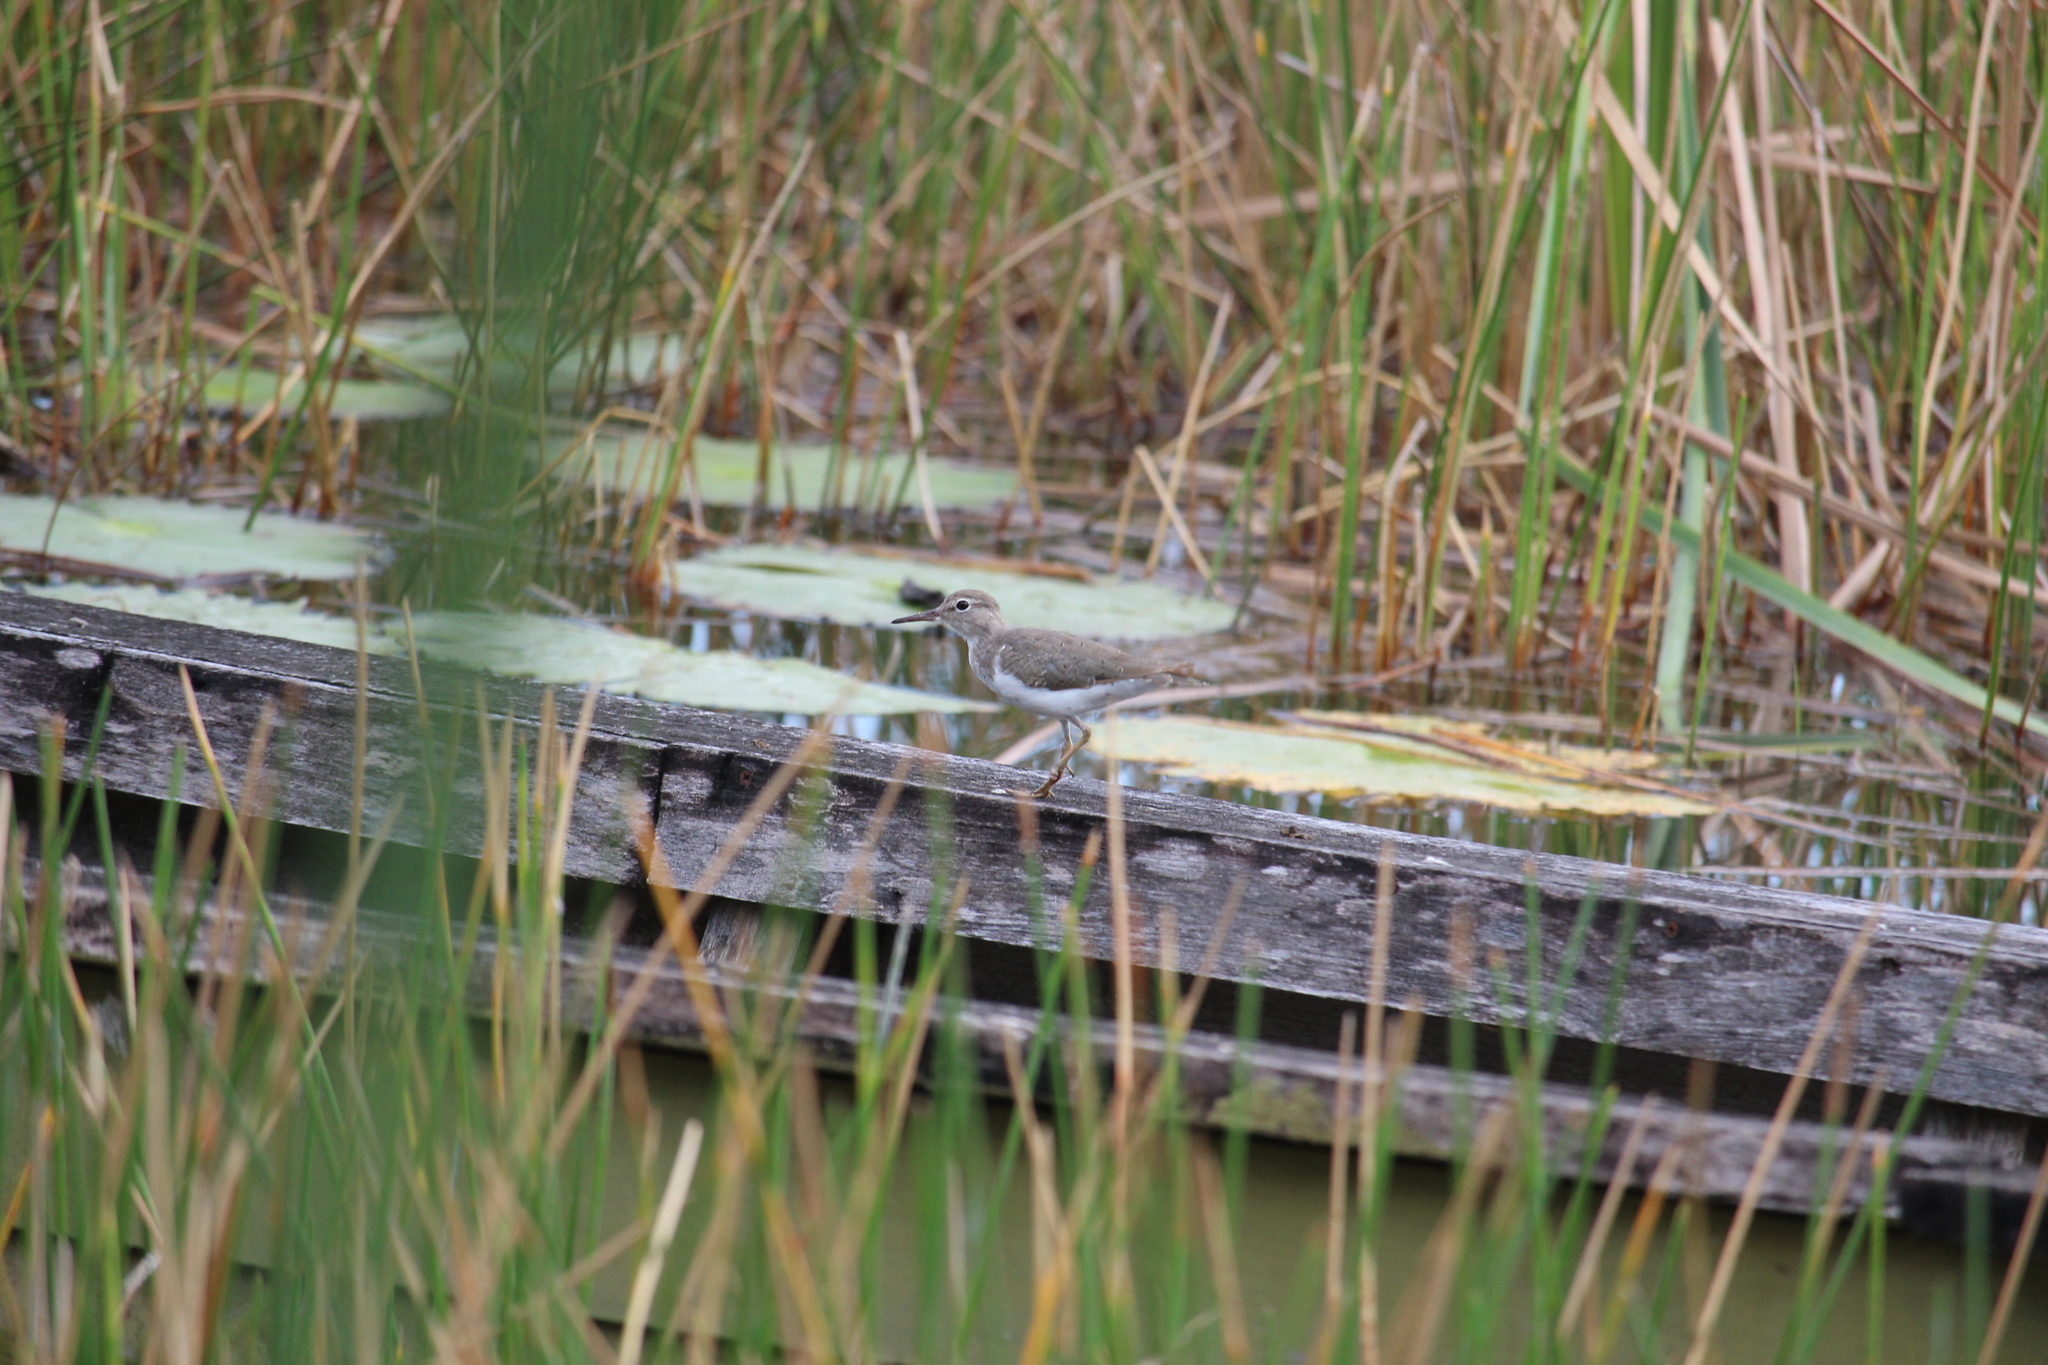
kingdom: Animalia
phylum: Chordata
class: Aves
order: Charadriiformes
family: Scolopacidae
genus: Actitis
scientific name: Actitis macularius
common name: Spotted sandpiper
